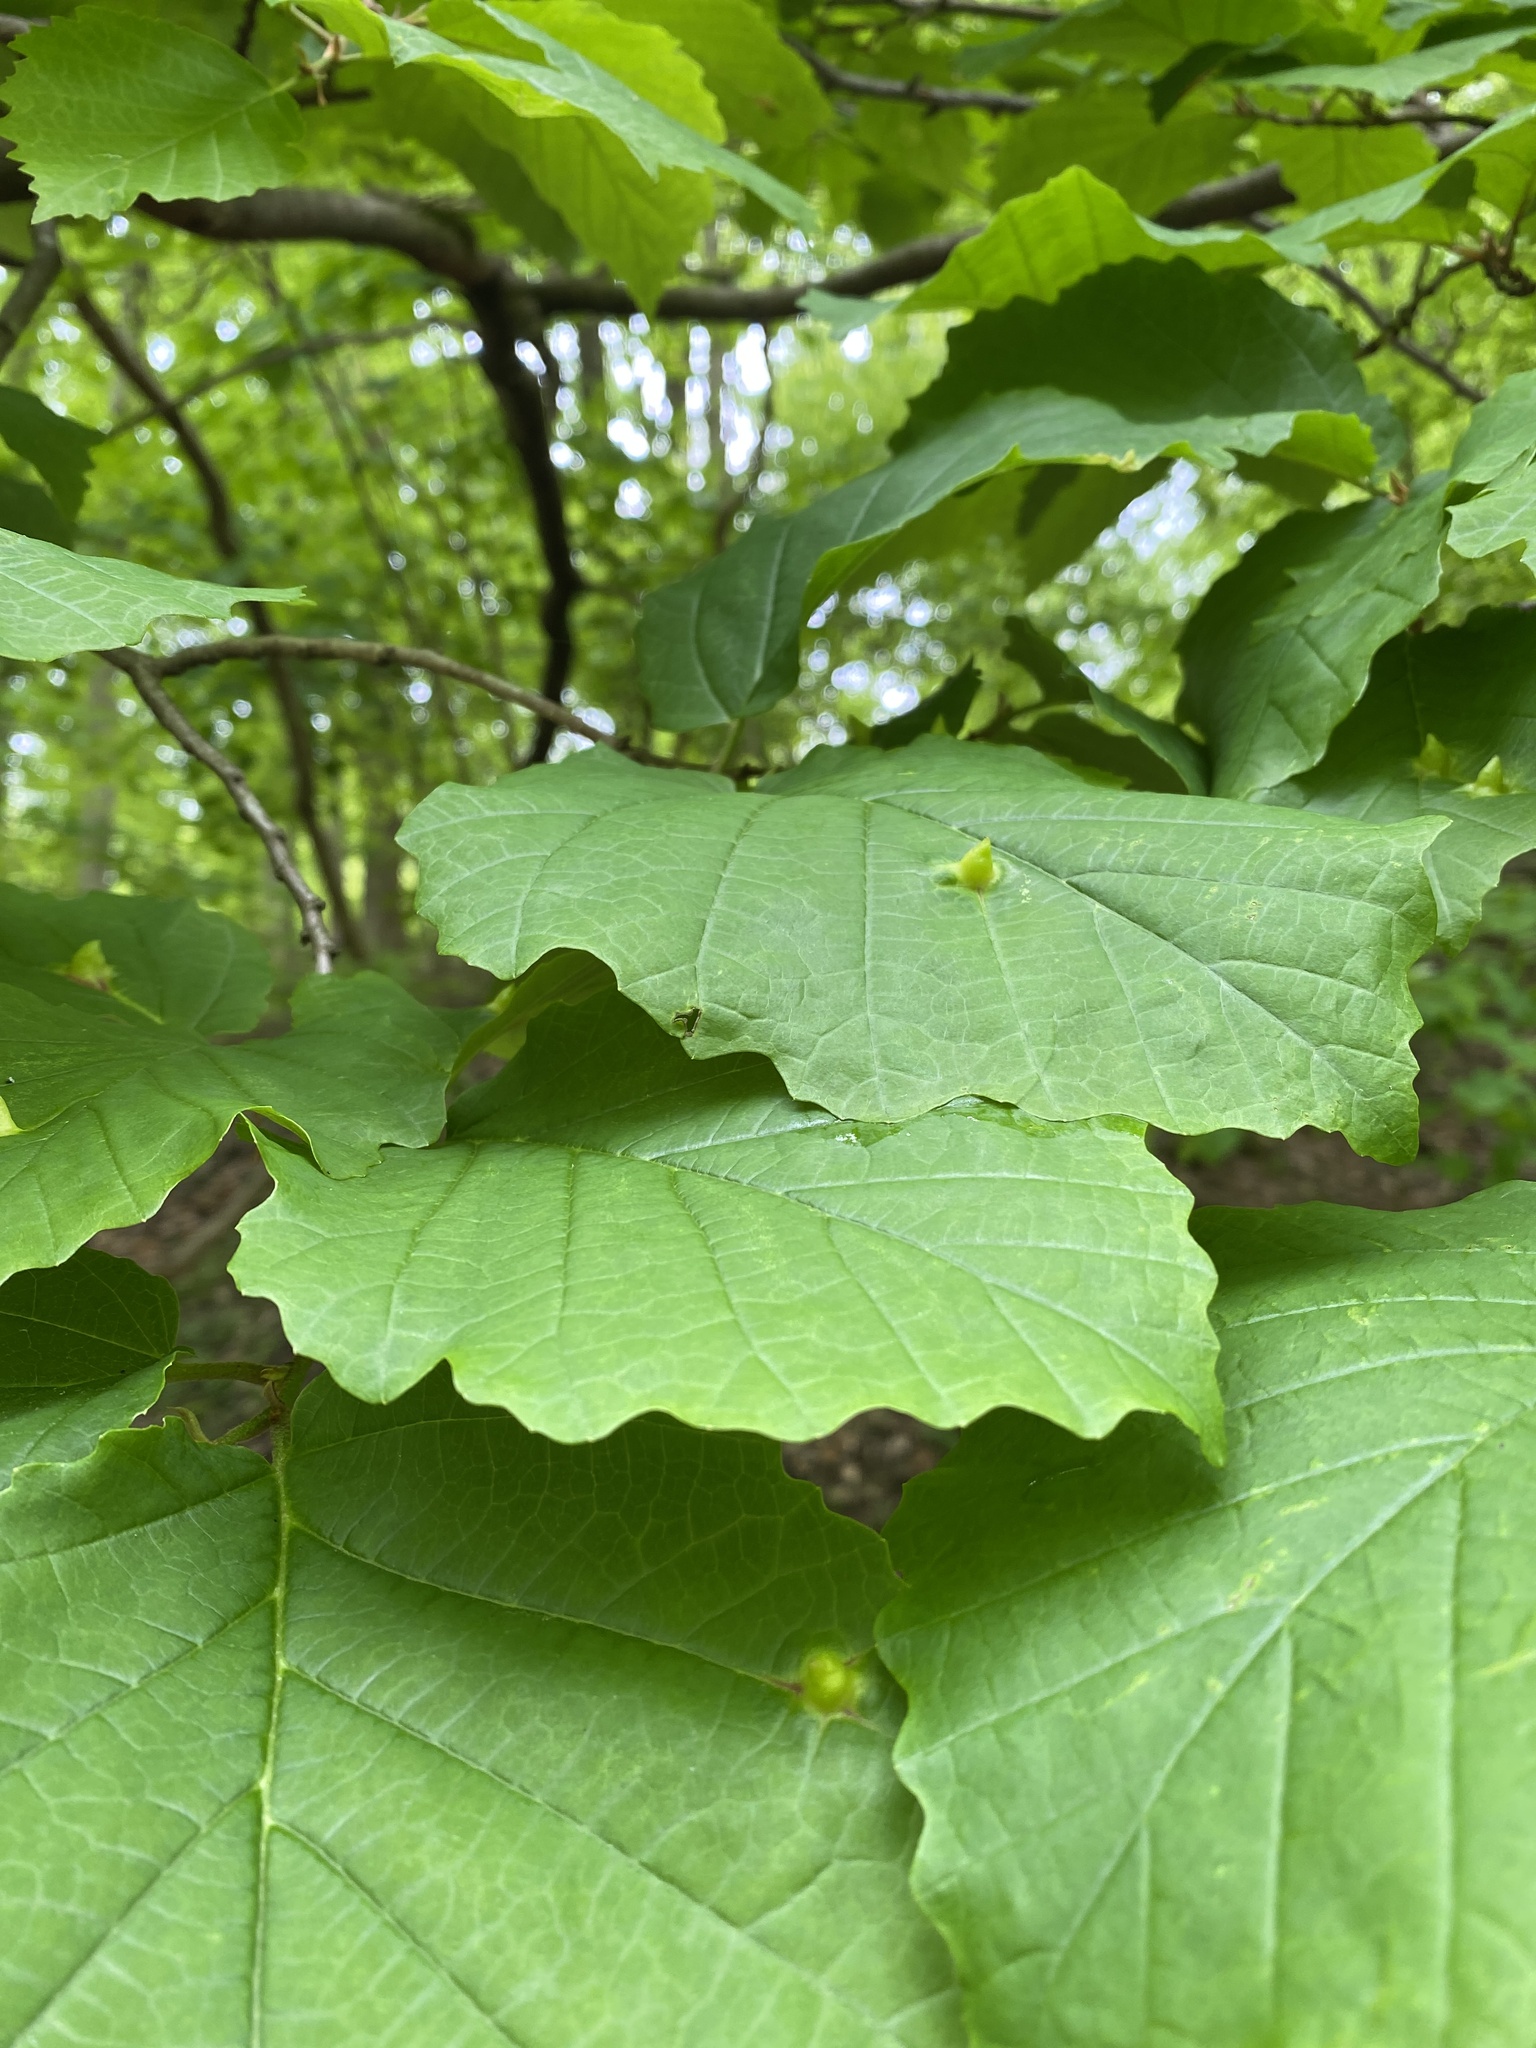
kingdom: Animalia
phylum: Arthropoda
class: Insecta
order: Hemiptera
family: Aphididae
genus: Hormaphis
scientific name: Hormaphis hamamelidis
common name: Witch-hazel cone gall aphid
